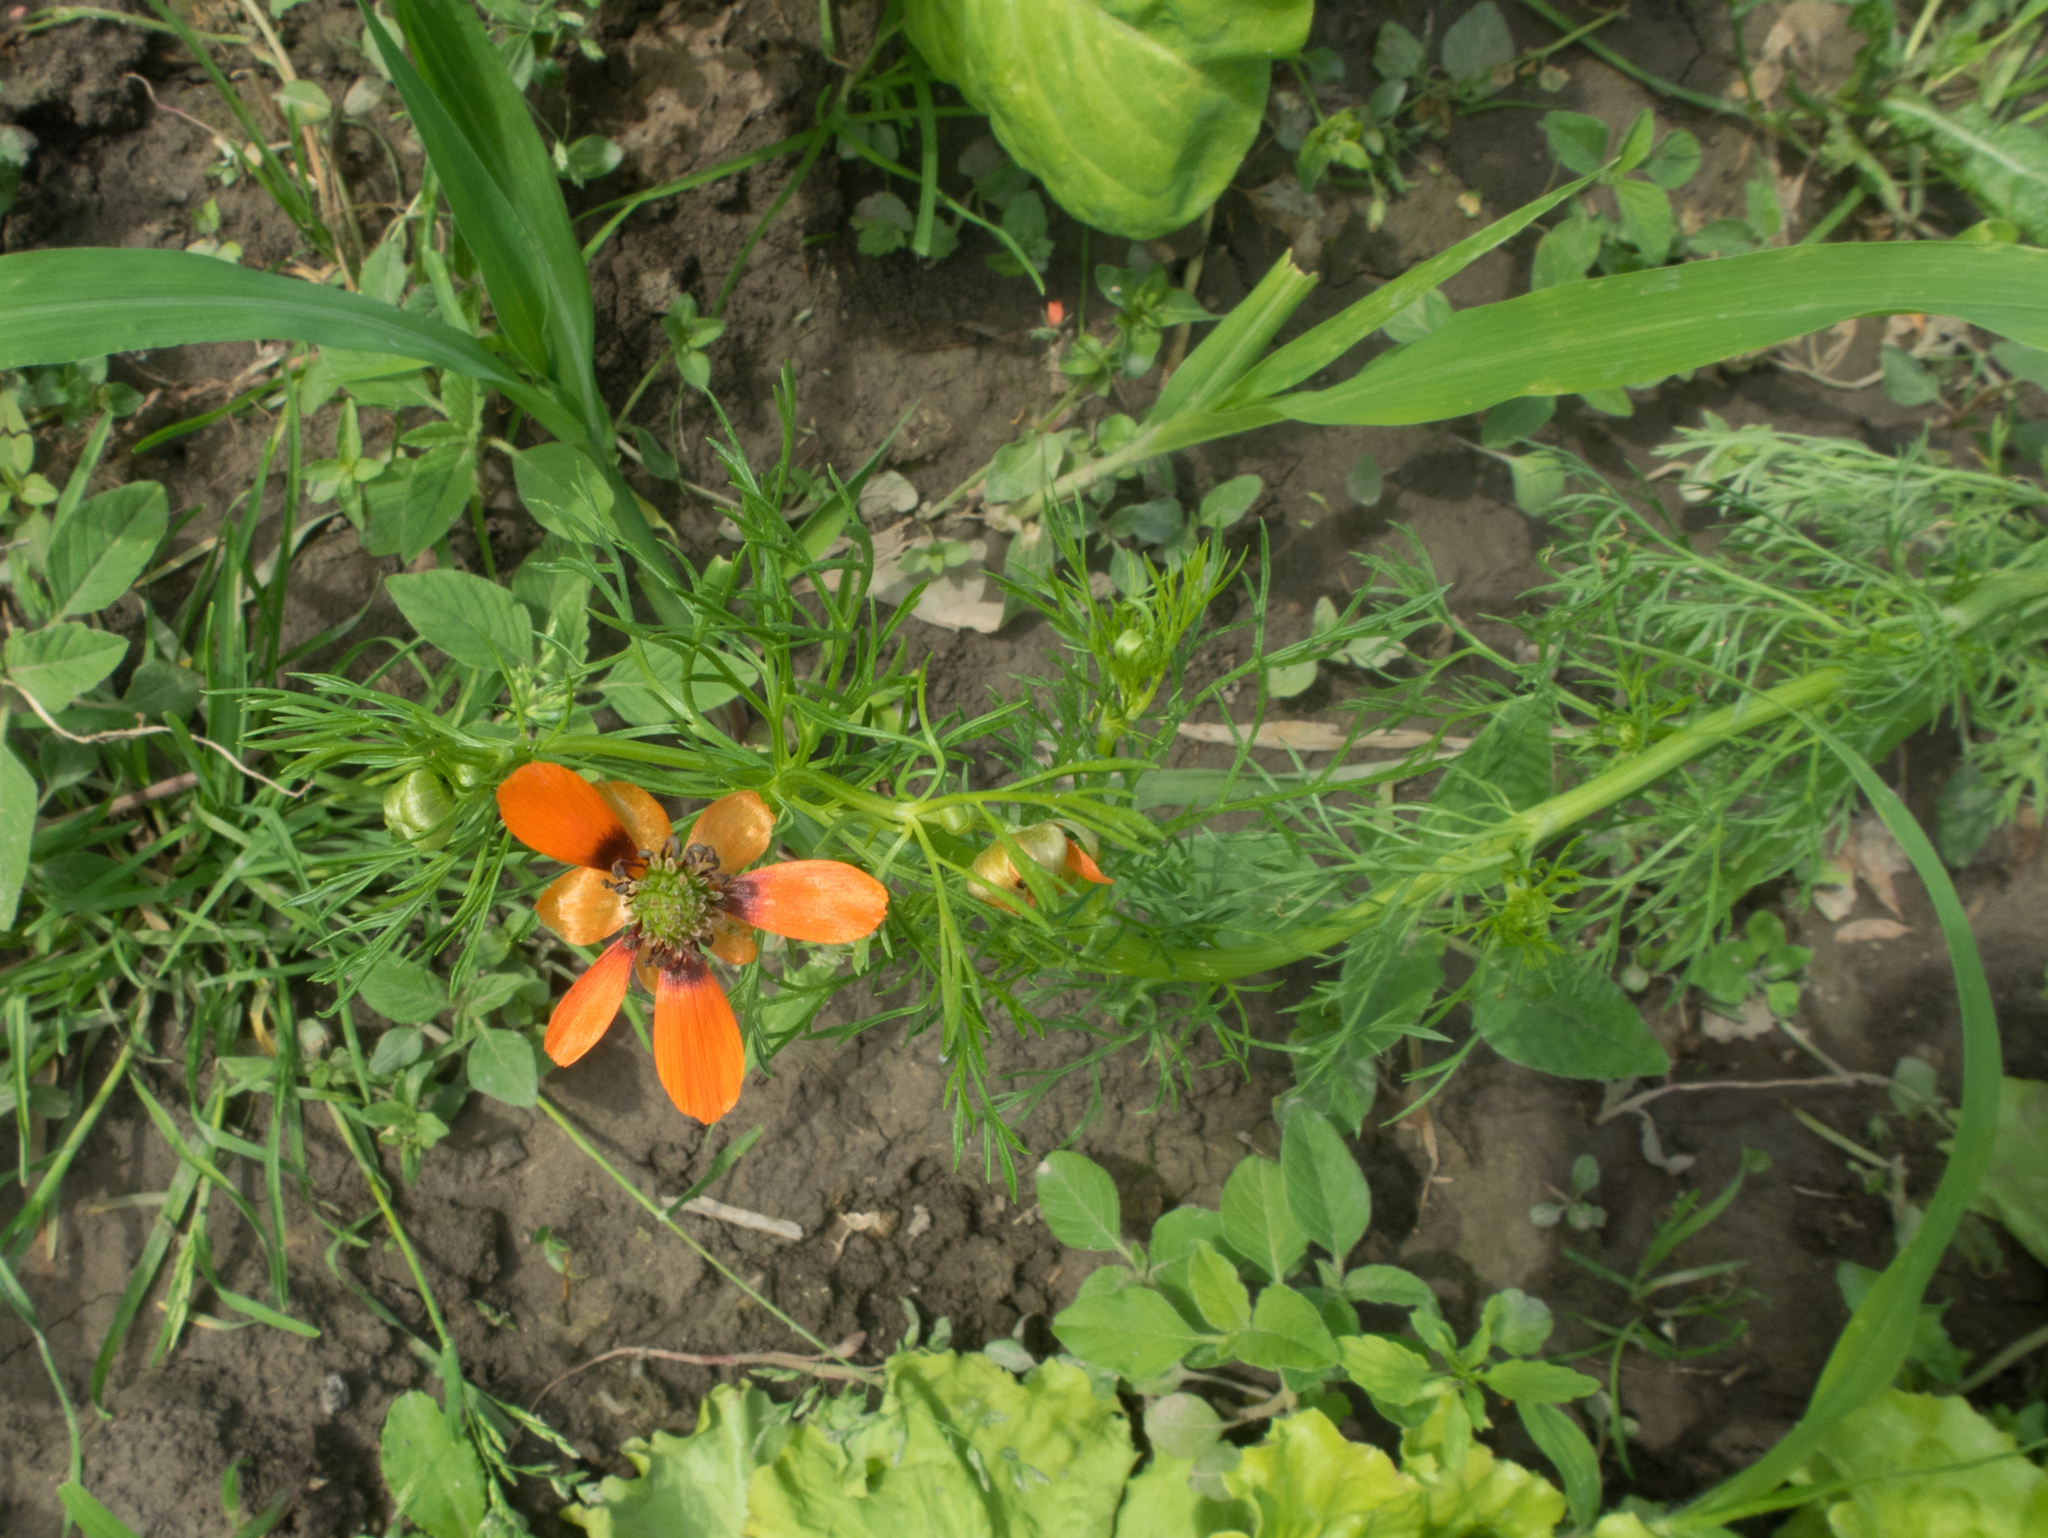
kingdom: Plantae
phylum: Tracheophyta
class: Magnoliopsida
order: Ranunculales
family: Ranunculaceae
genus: Adonis
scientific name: Adonis aestivalis
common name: Summer pheasant's-eye
